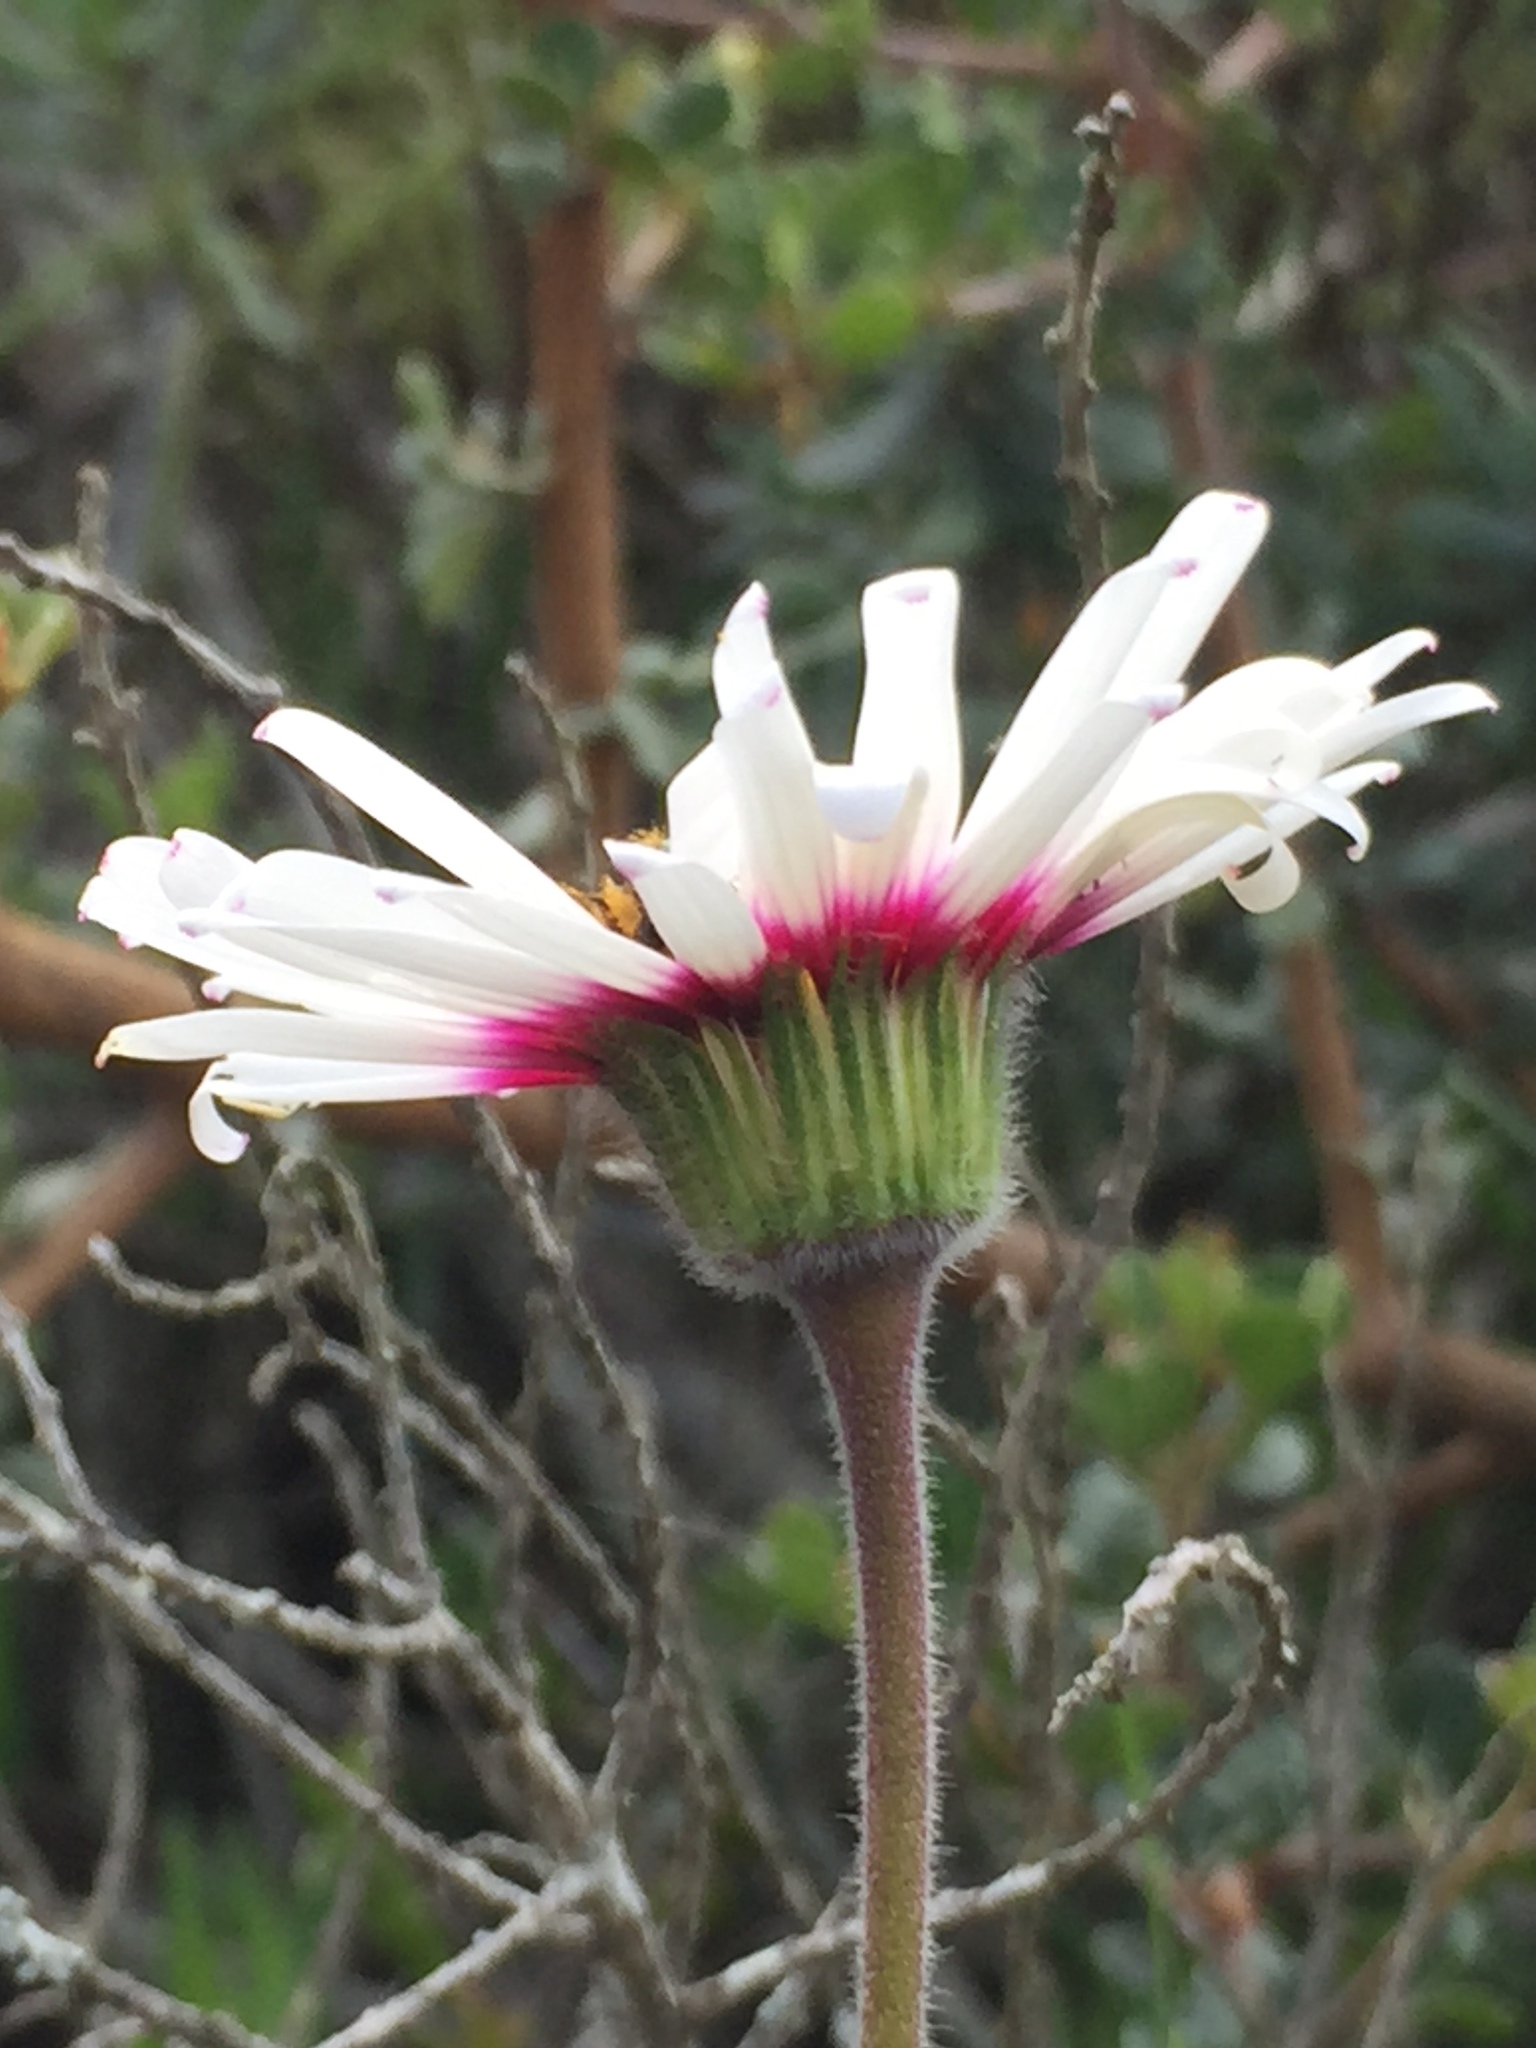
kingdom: Plantae
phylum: Tracheophyta
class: Magnoliopsida
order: Asterales
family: Asteraceae
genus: Felicia
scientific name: Felicia elongata
